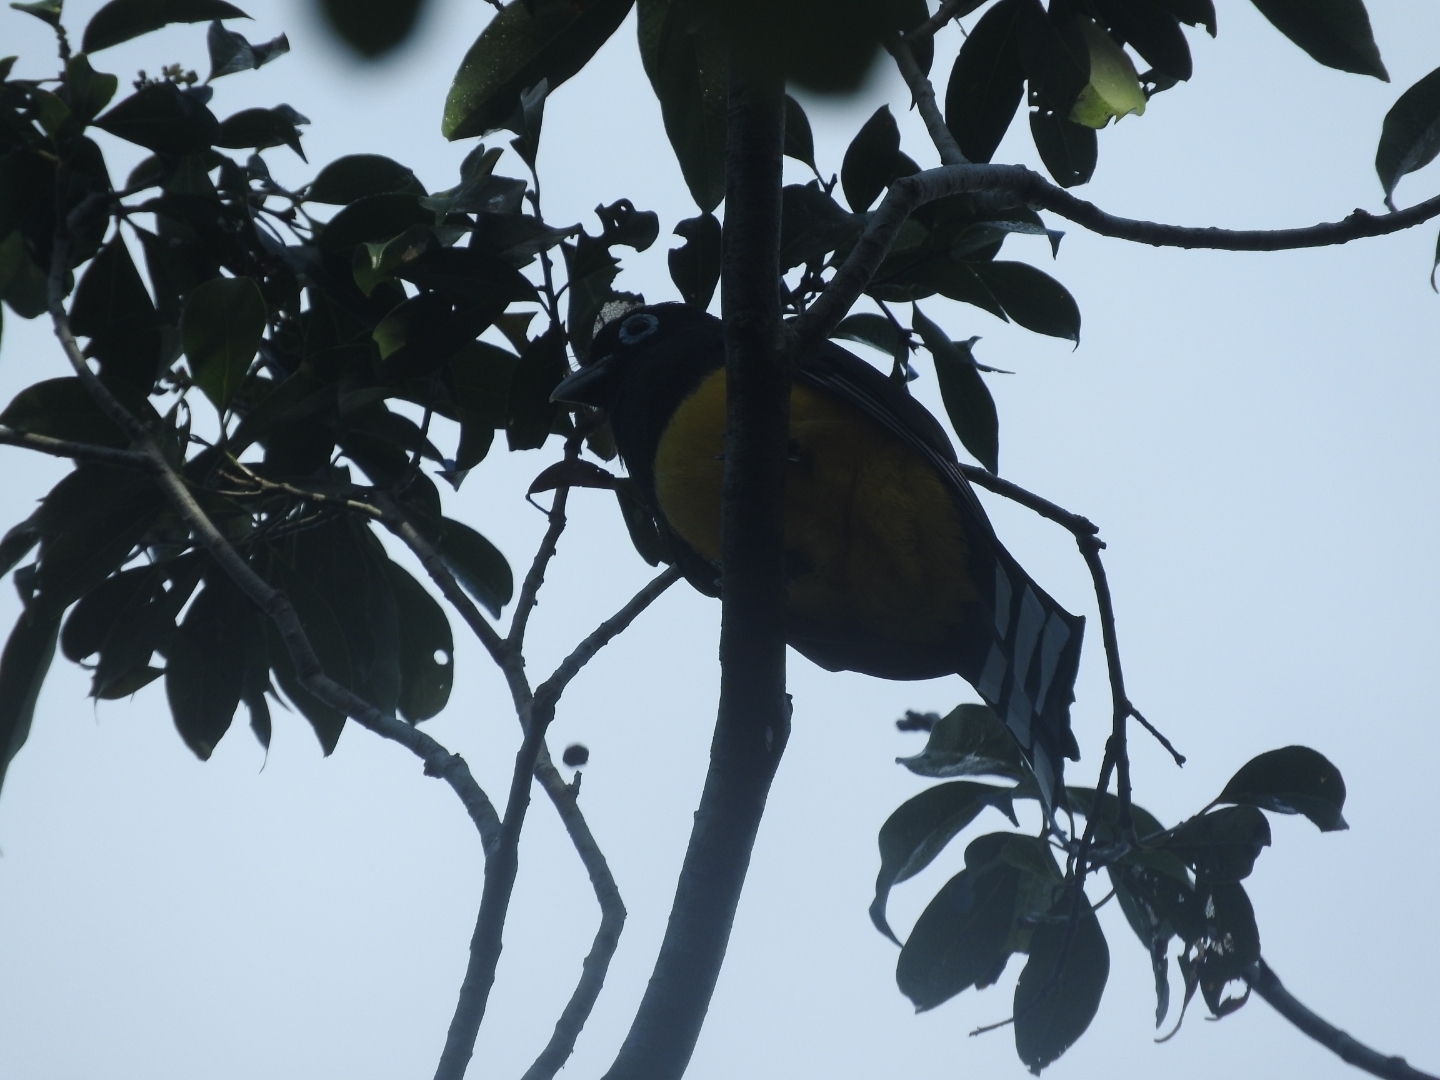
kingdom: Animalia
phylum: Chordata
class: Aves
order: Trogoniformes
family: Trogonidae
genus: Trogon
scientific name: Trogon melanocephalus
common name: Black-headed trogon
